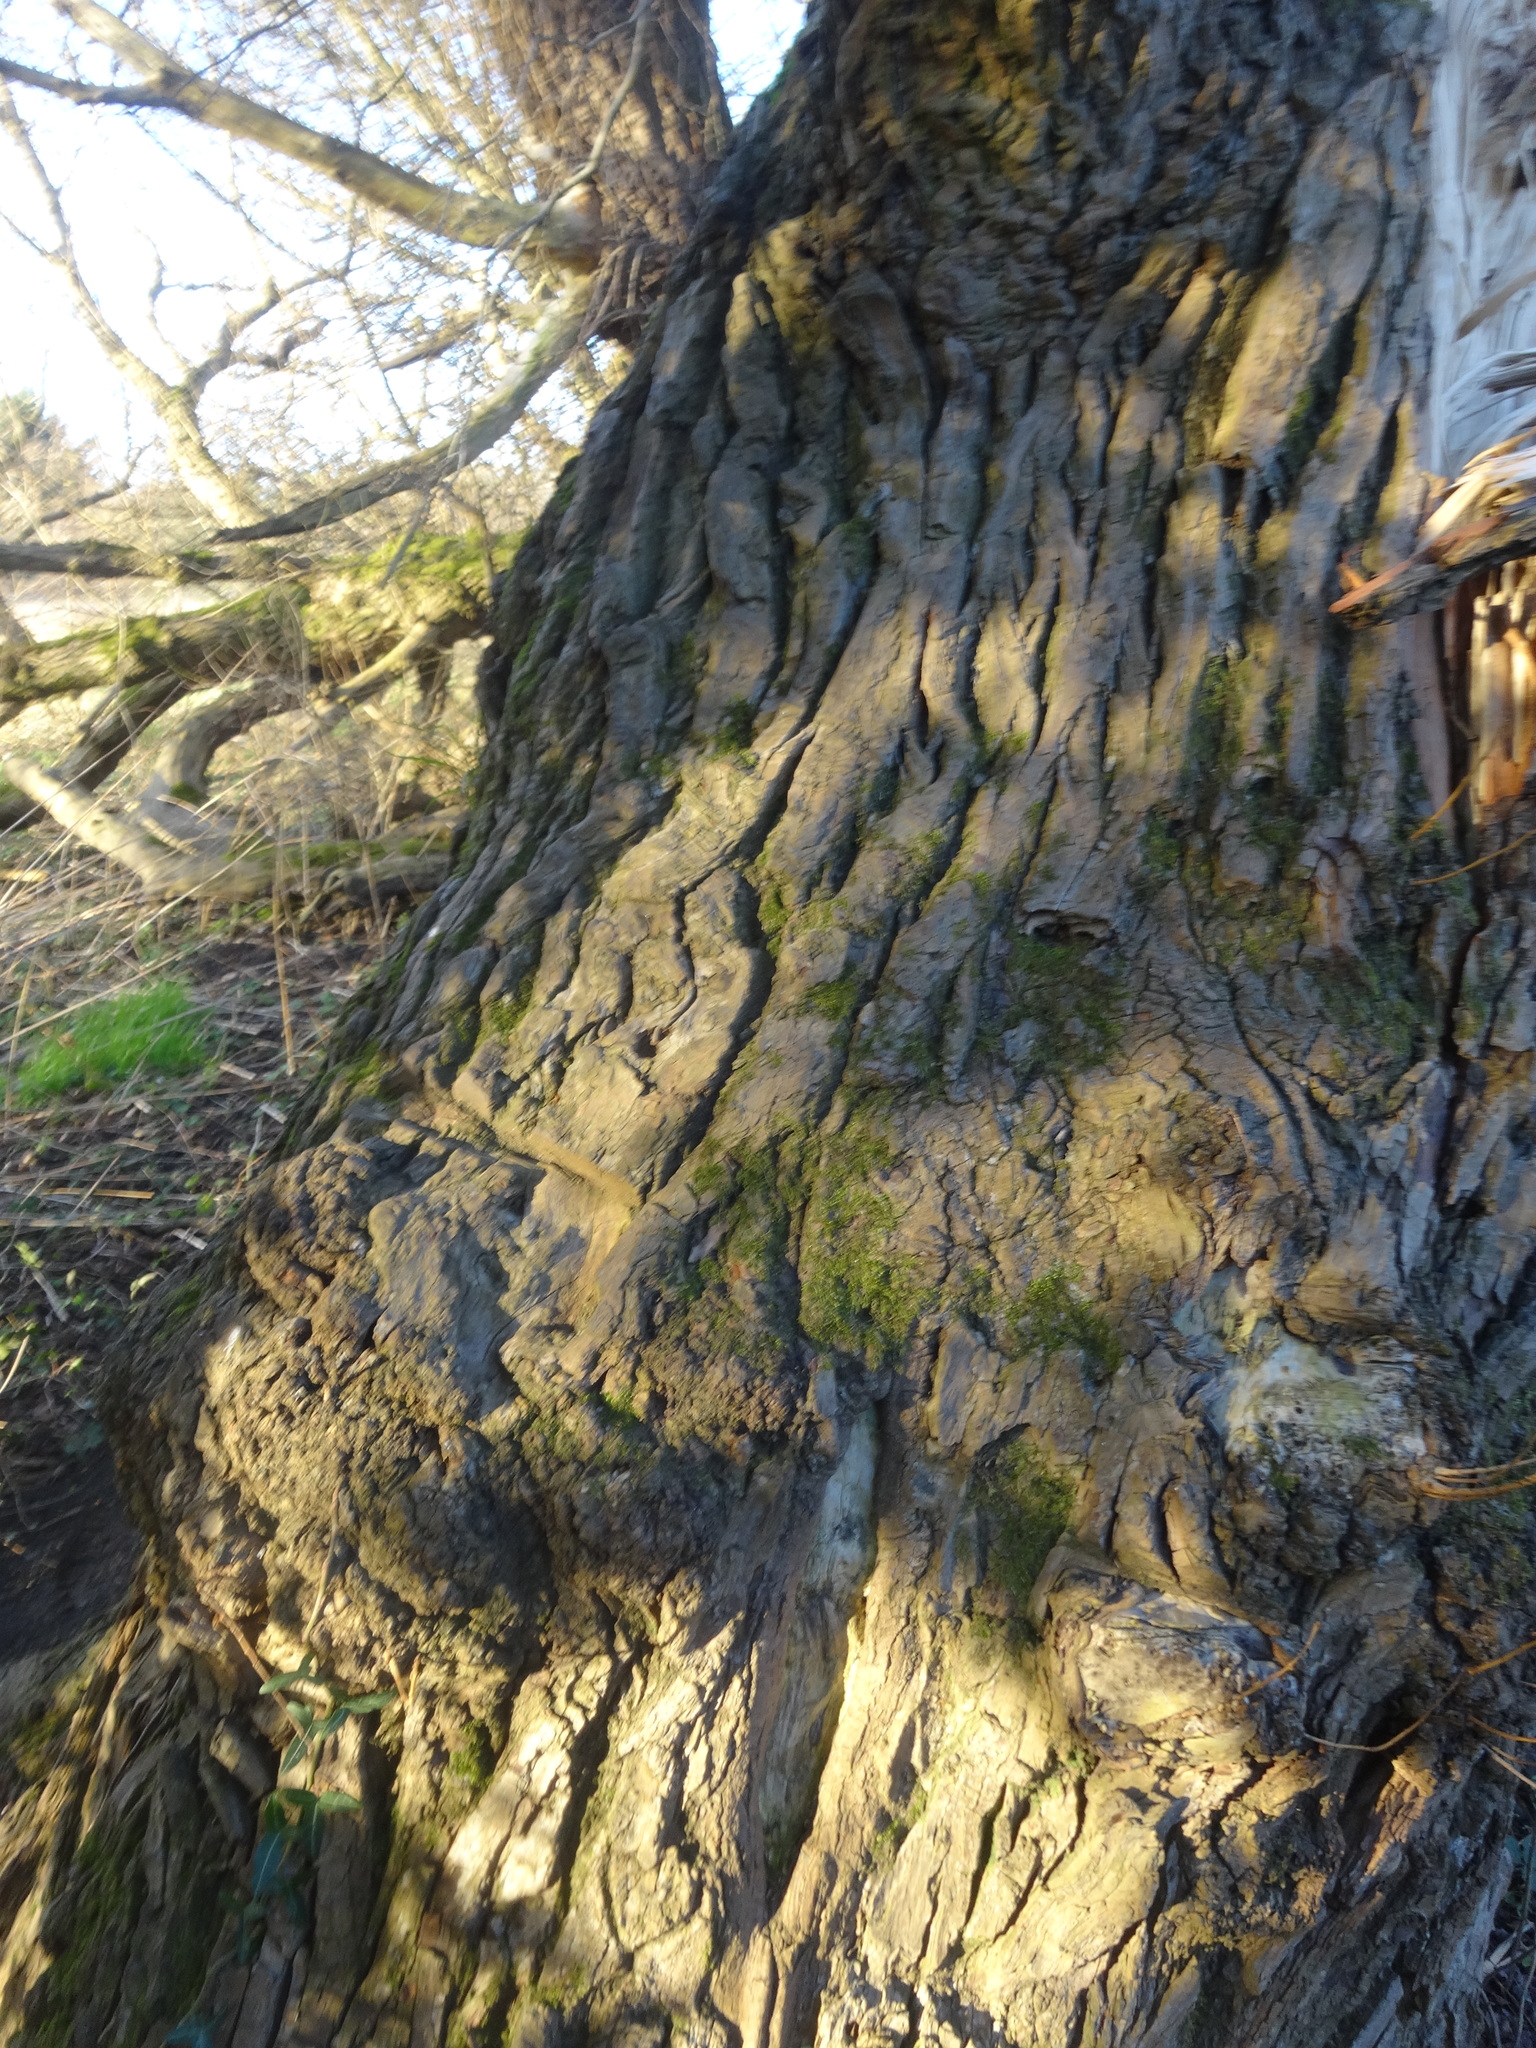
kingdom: Plantae
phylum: Tracheophyta
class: Magnoliopsida
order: Malpighiales
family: Salicaceae
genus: Populus
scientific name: Populus nigra
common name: Black poplar
